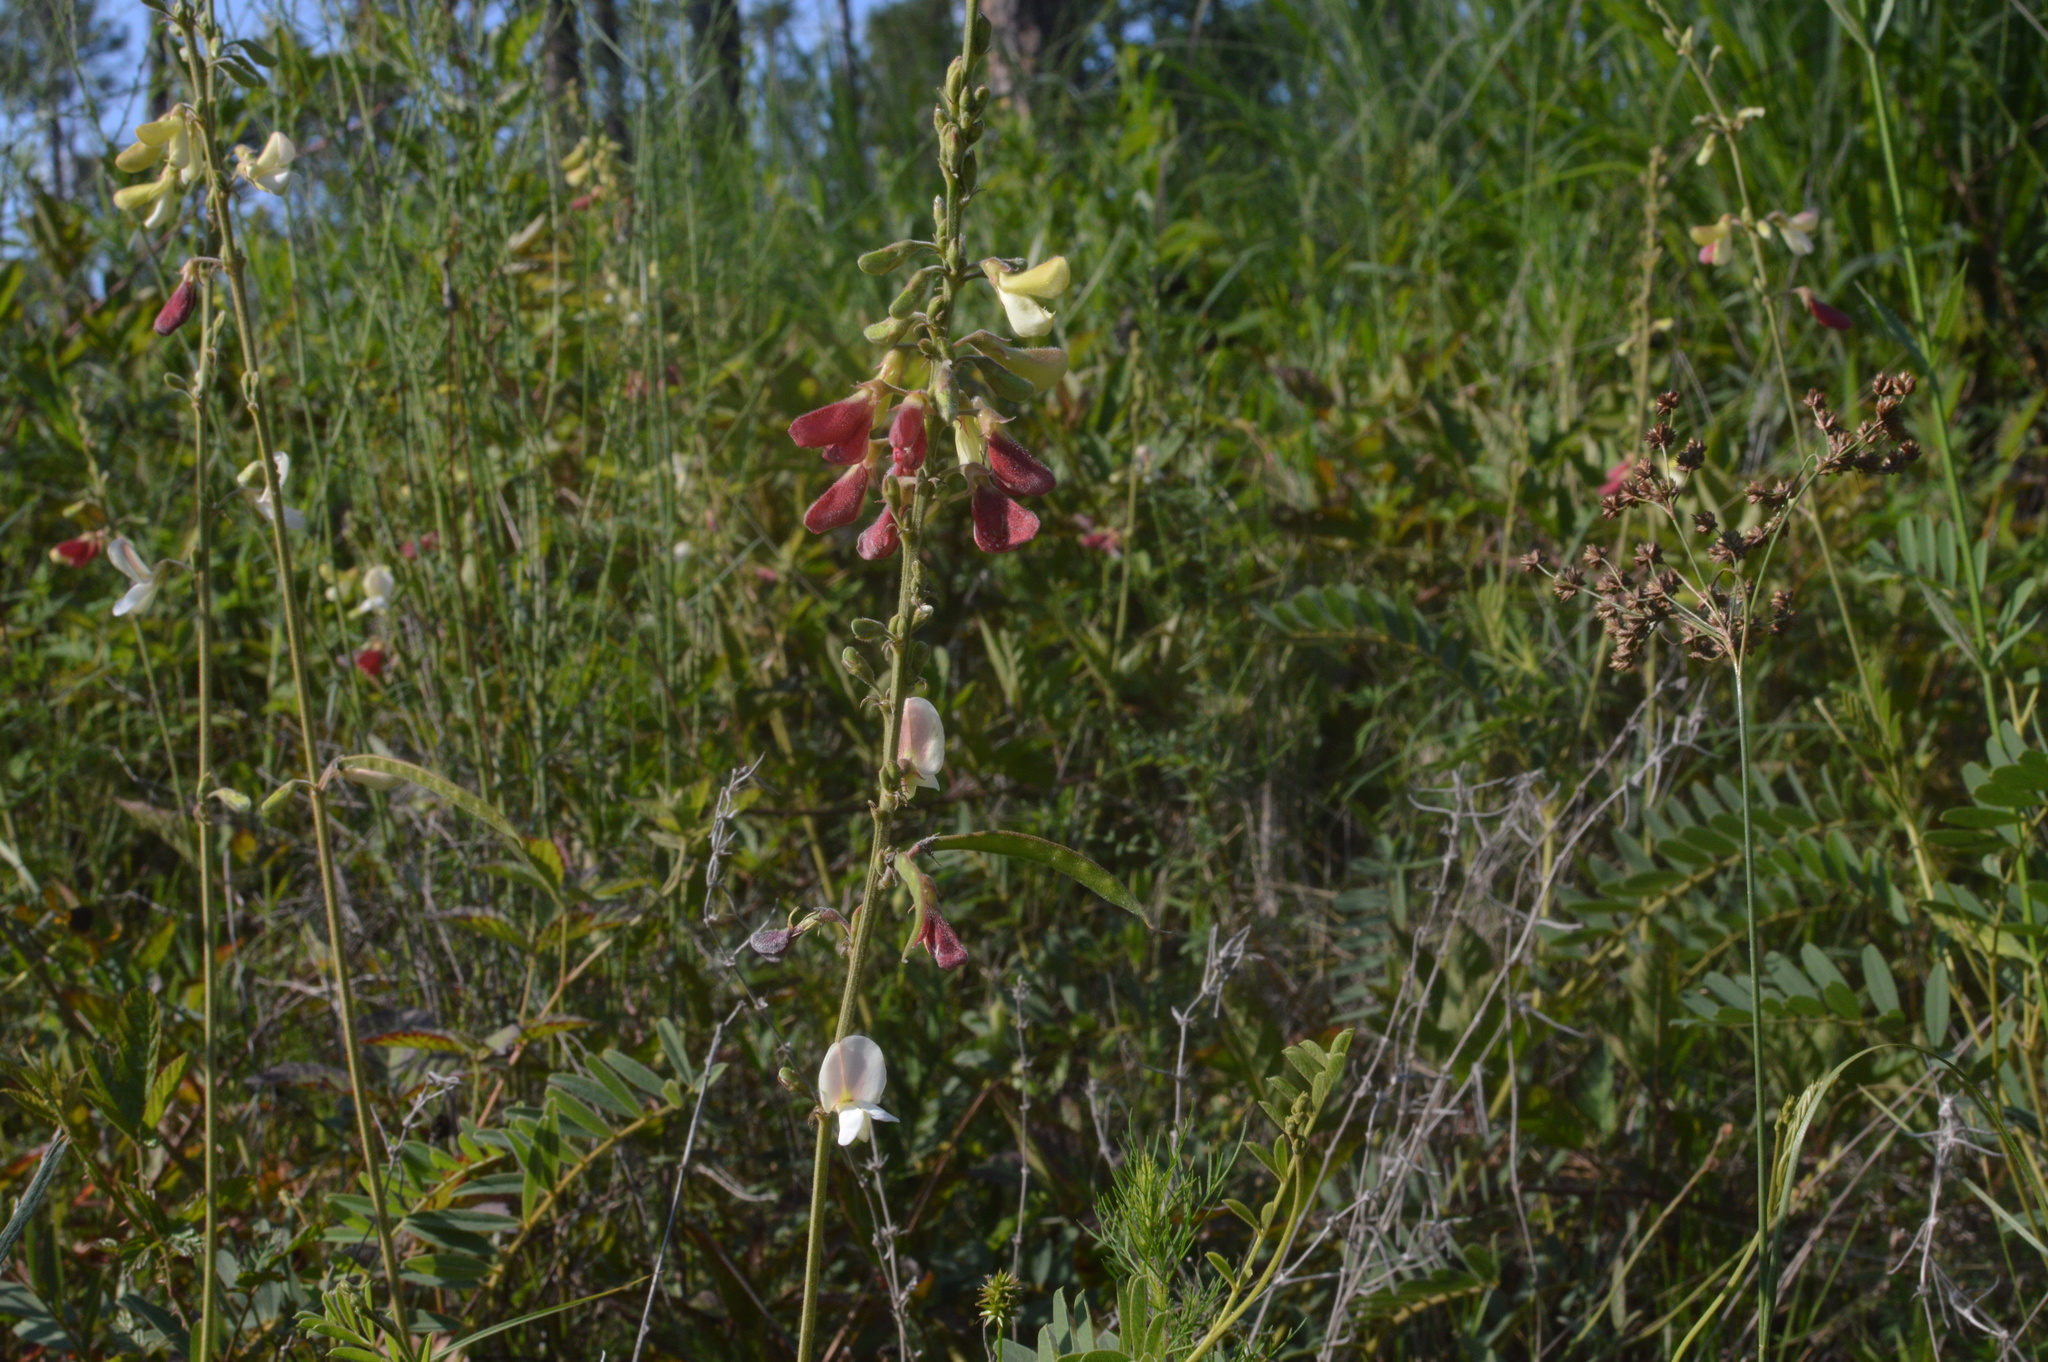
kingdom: Plantae
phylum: Tracheophyta
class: Magnoliopsida
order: Fabales
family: Fabaceae
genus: Tephrosia
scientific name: Tephrosia onobrychoides
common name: Multi-bloom hoary-pea
